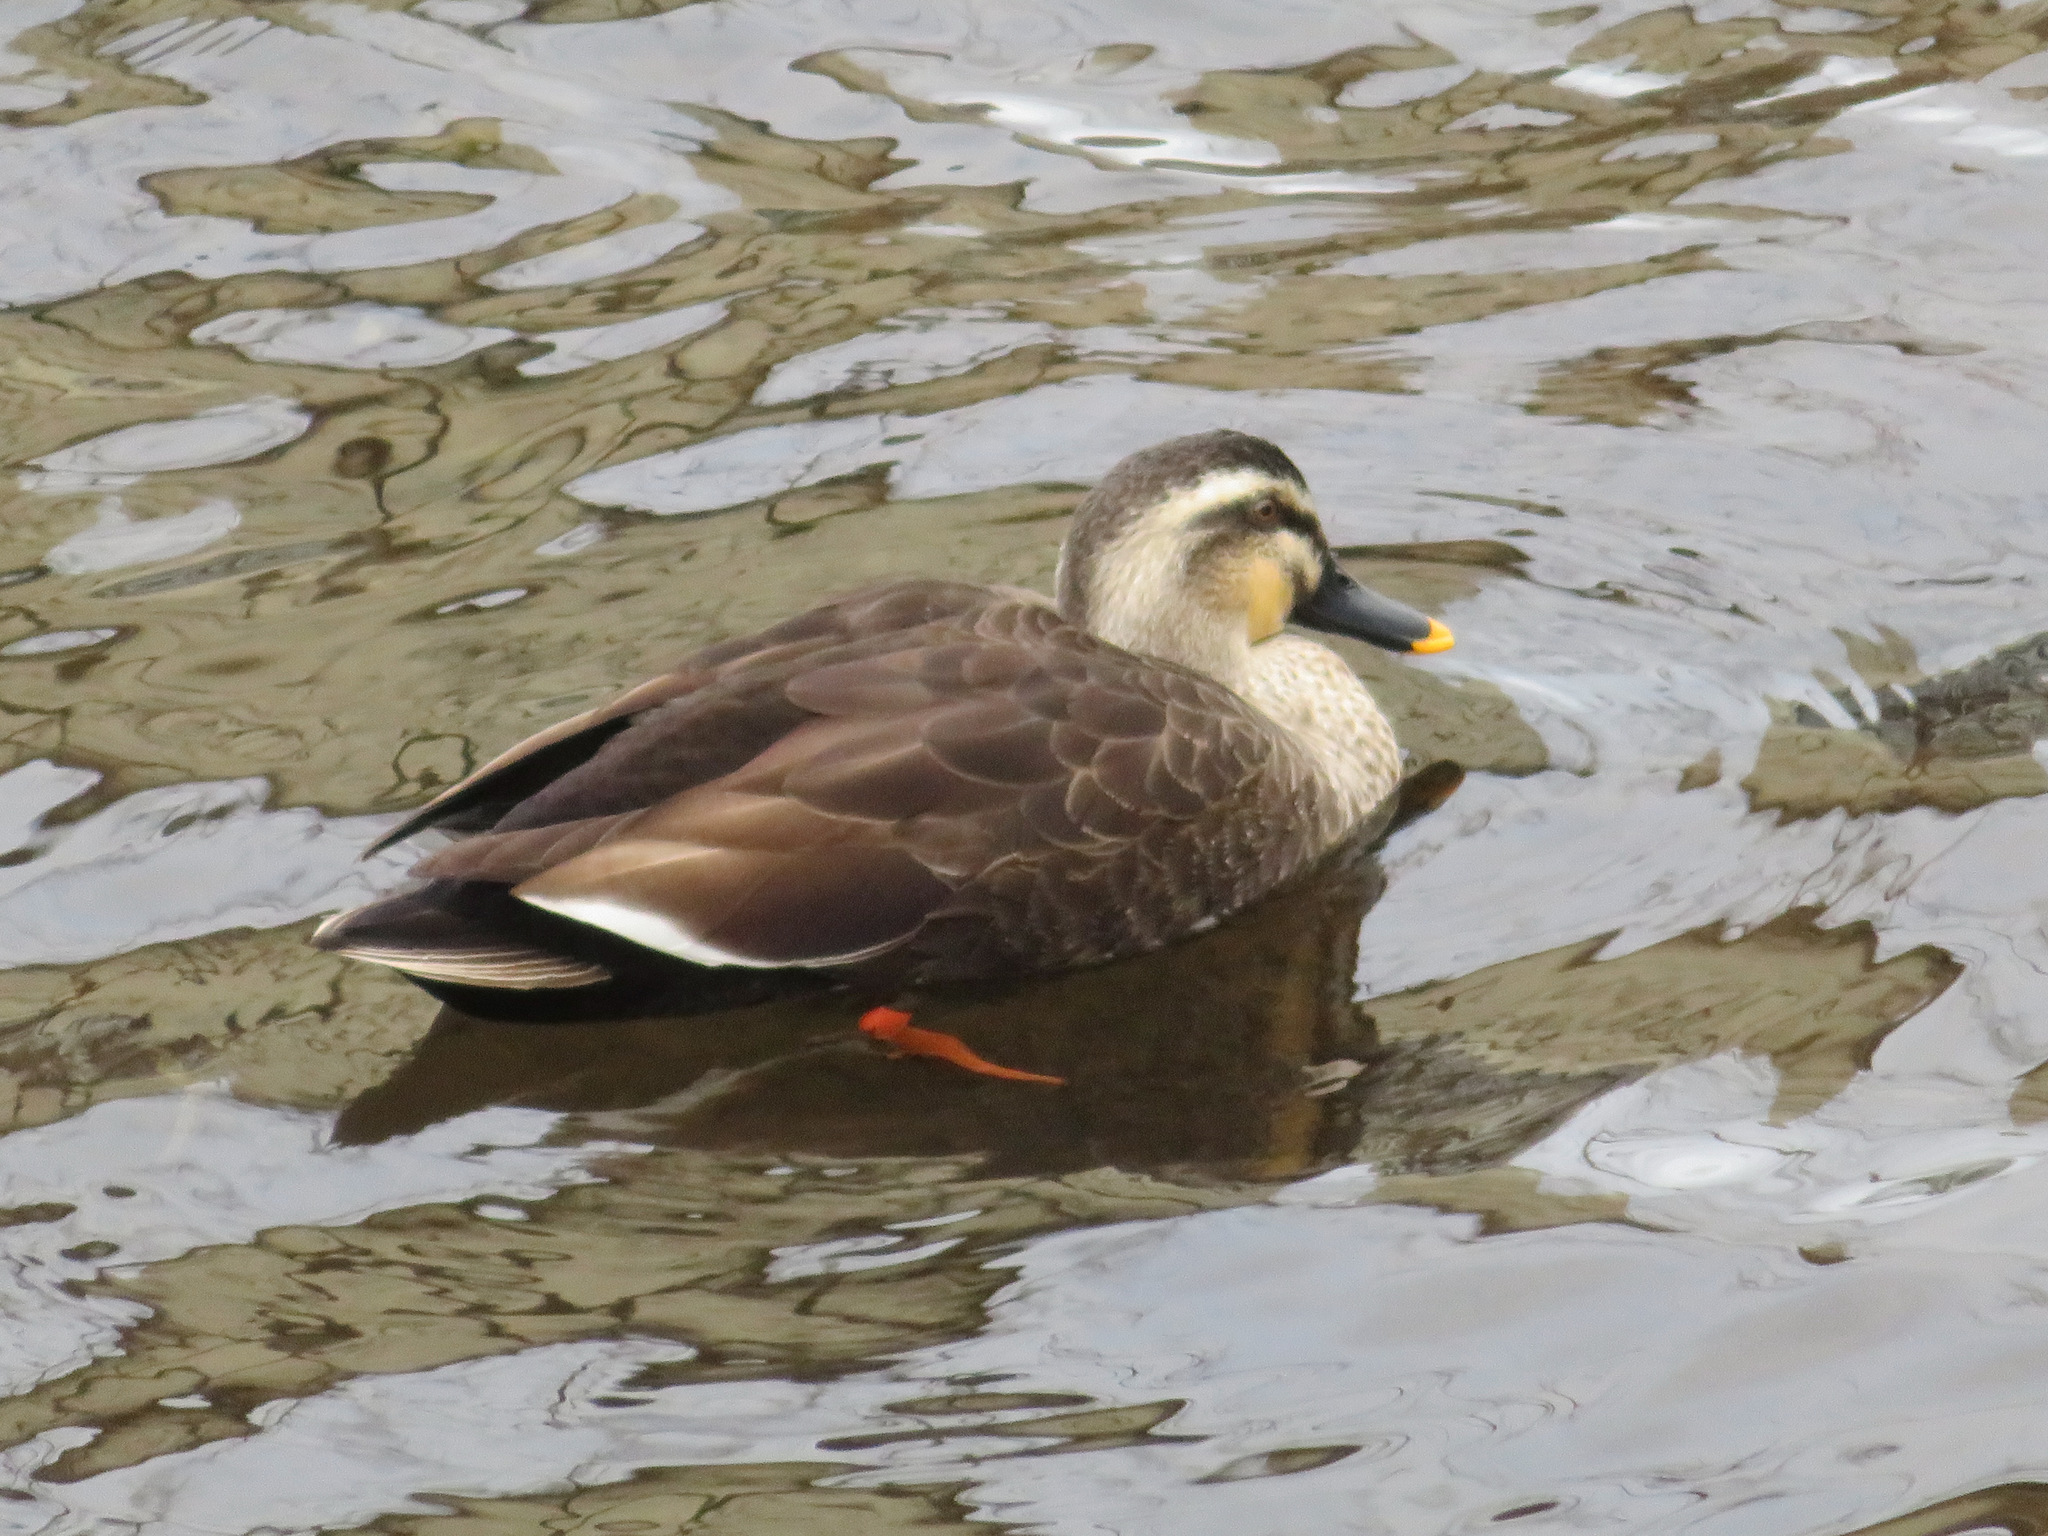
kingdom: Animalia
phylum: Chordata
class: Aves
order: Anseriformes
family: Anatidae
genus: Anas
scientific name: Anas zonorhyncha
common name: Eastern spot-billed duck
